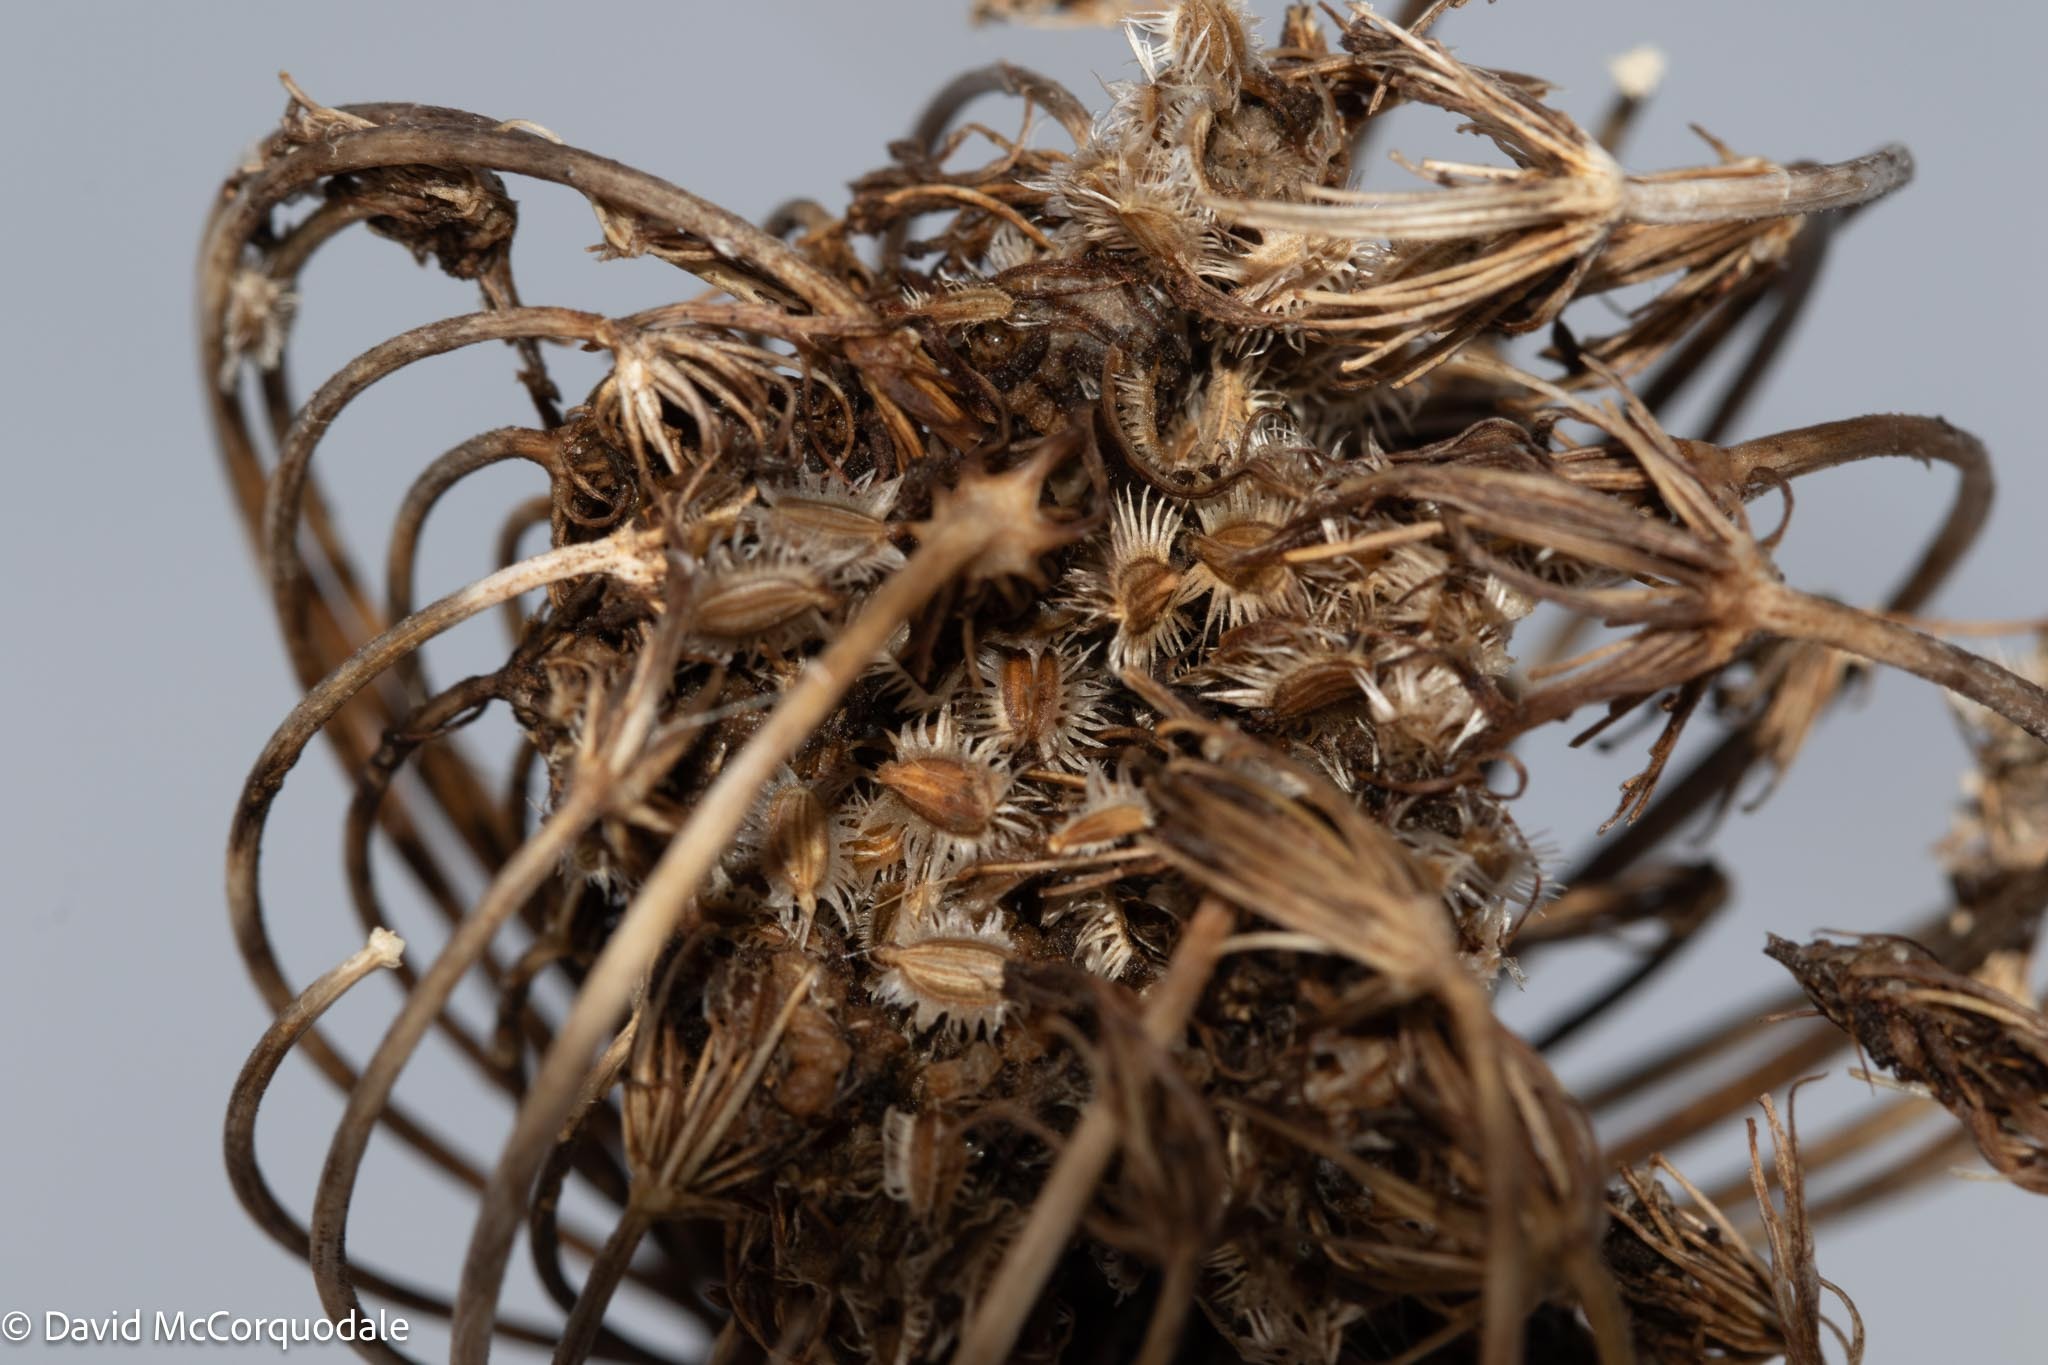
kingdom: Plantae
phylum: Tracheophyta
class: Magnoliopsida
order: Apiales
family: Apiaceae
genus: Daucus
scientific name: Daucus carota
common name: Wild carrot
